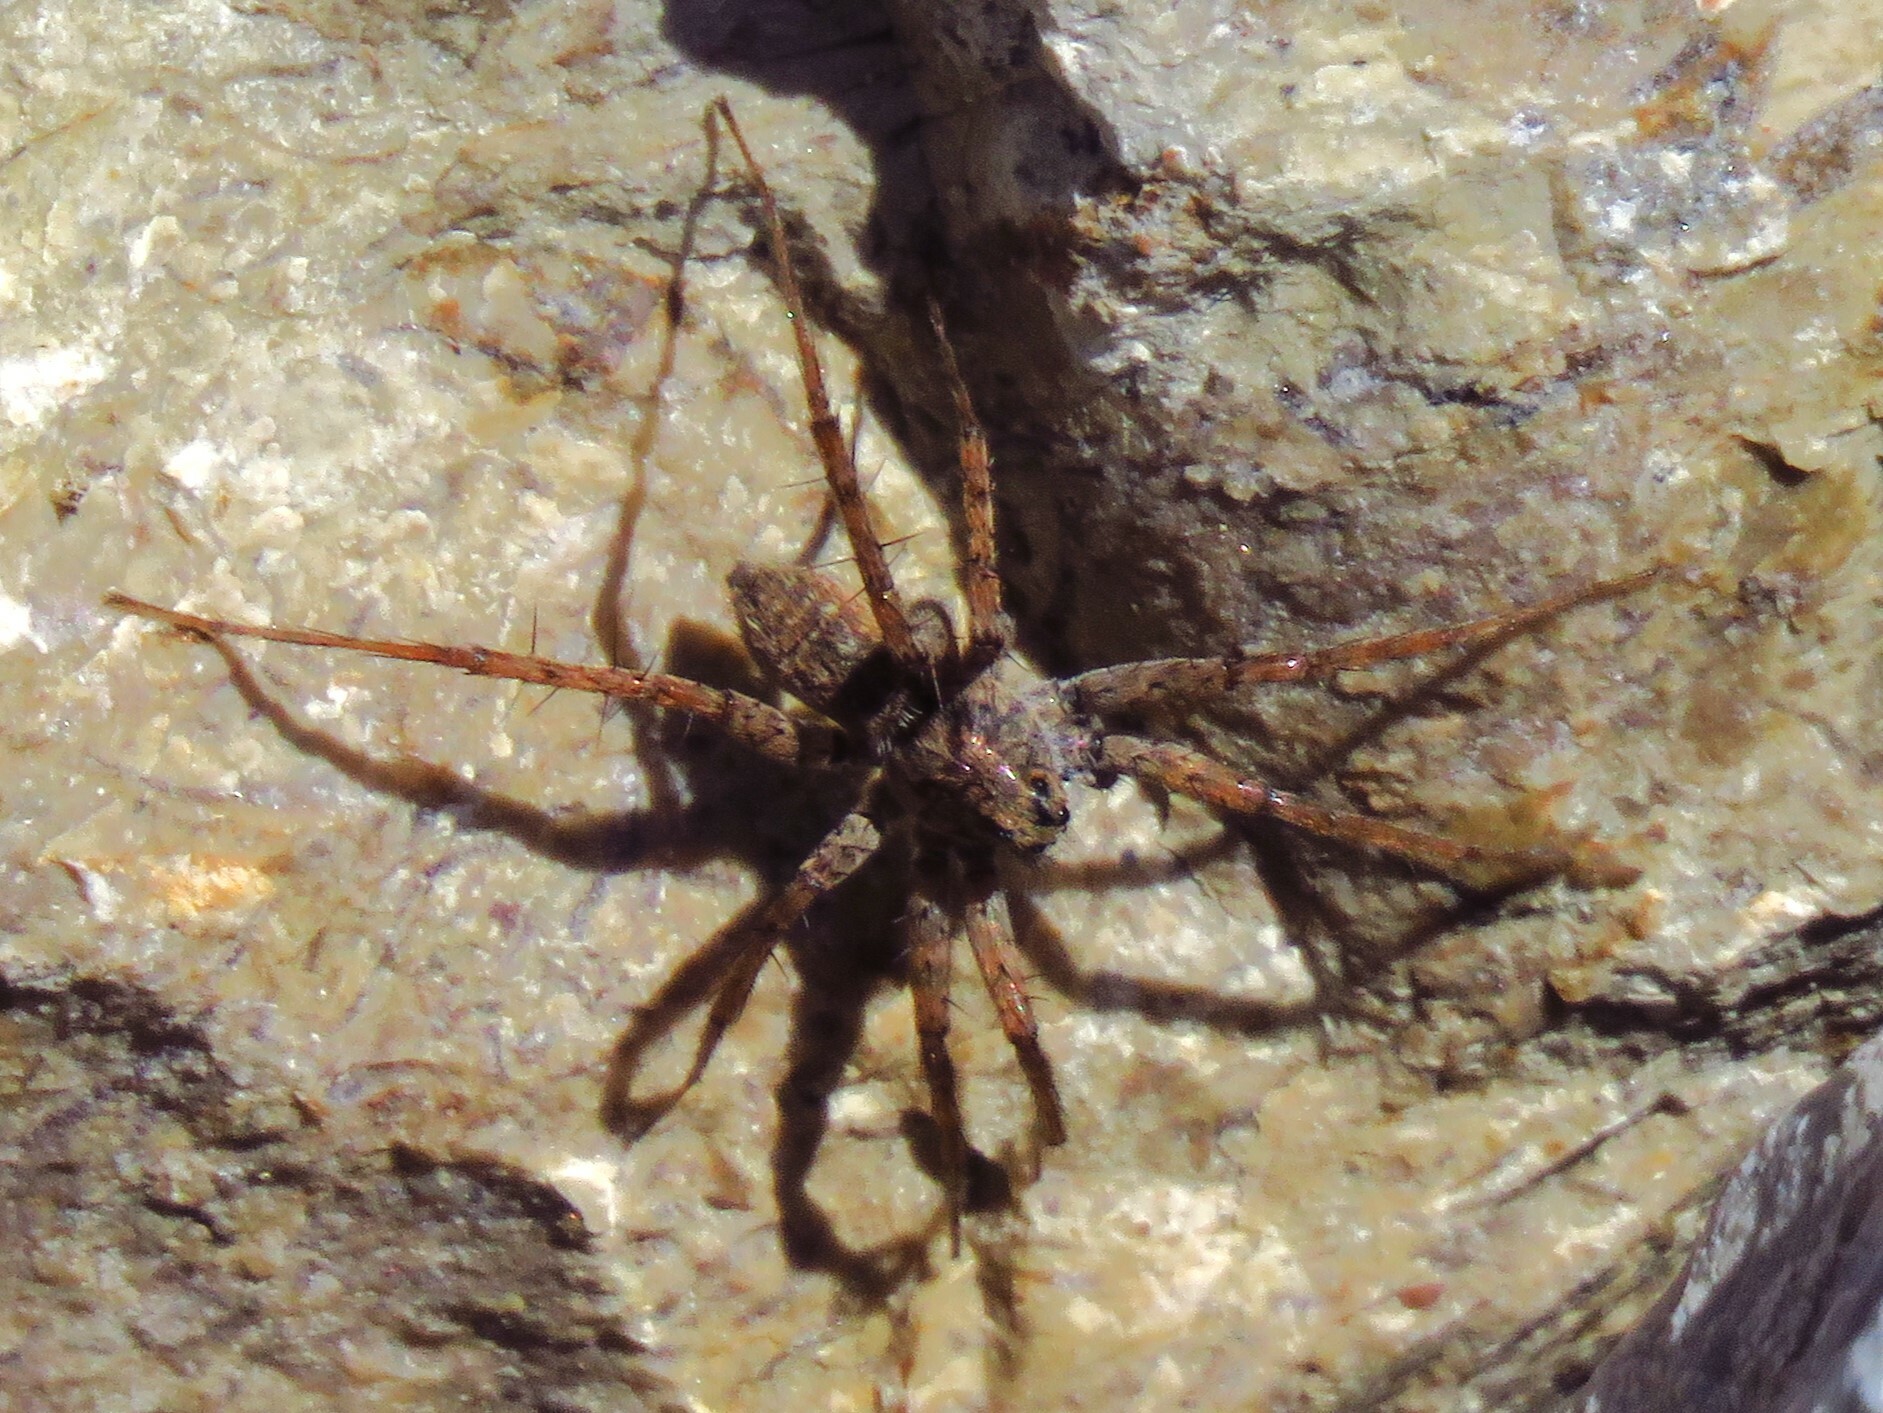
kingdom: Animalia
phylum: Arthropoda
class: Arachnida
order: Araneae
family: Lycosidae
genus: Pardosa
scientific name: Pardosa mercurialis
